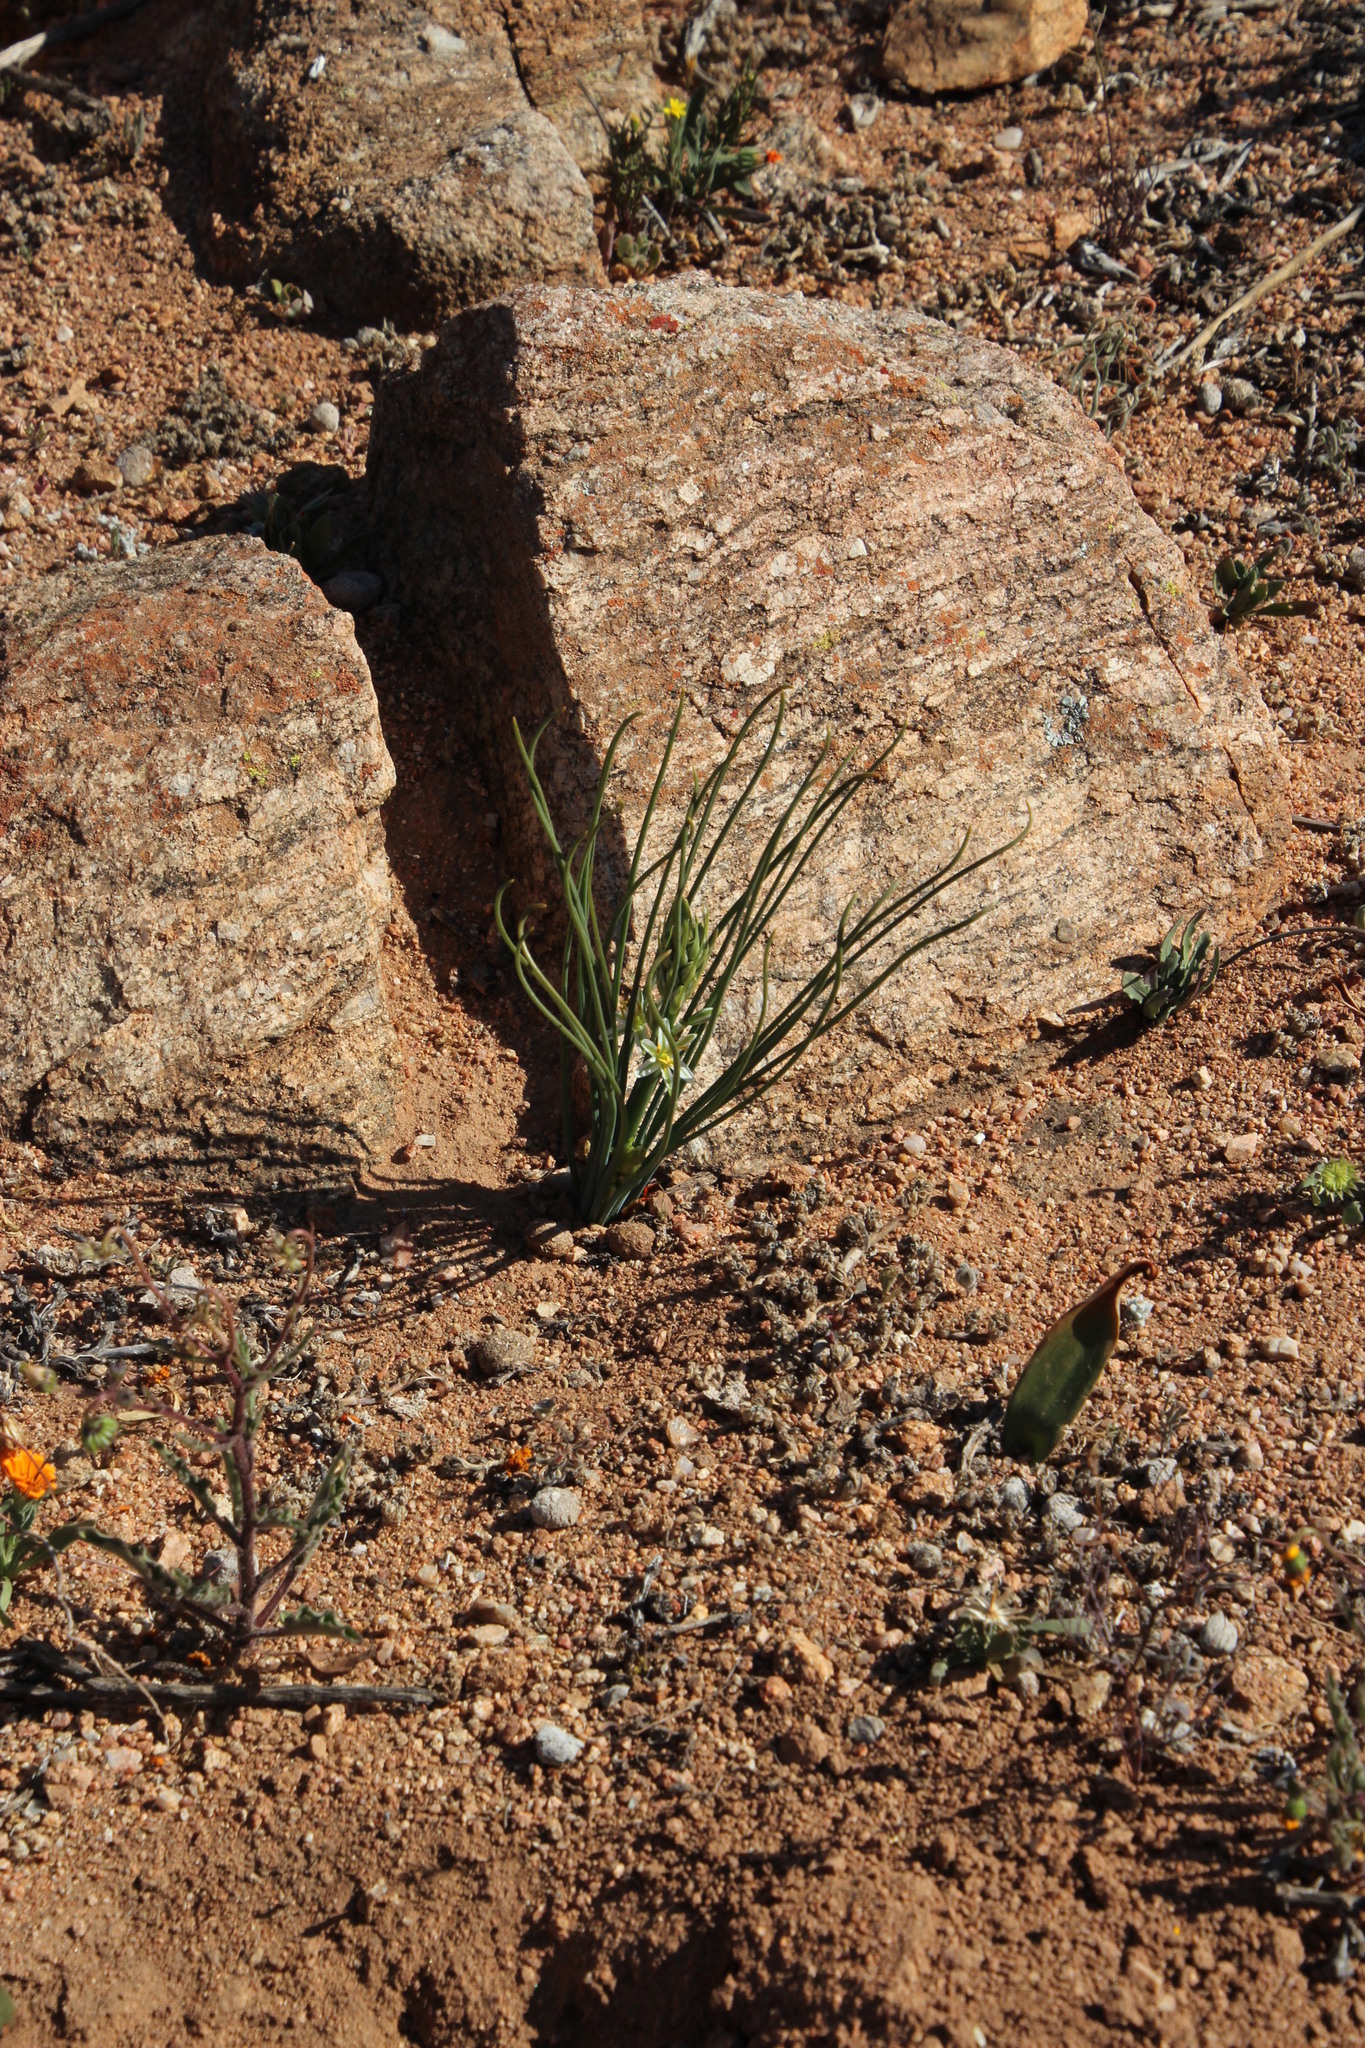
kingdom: Plantae
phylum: Tracheophyta
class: Liliopsida
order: Asparagales
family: Asparagaceae
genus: Albuca
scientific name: Albuca consanguinea
